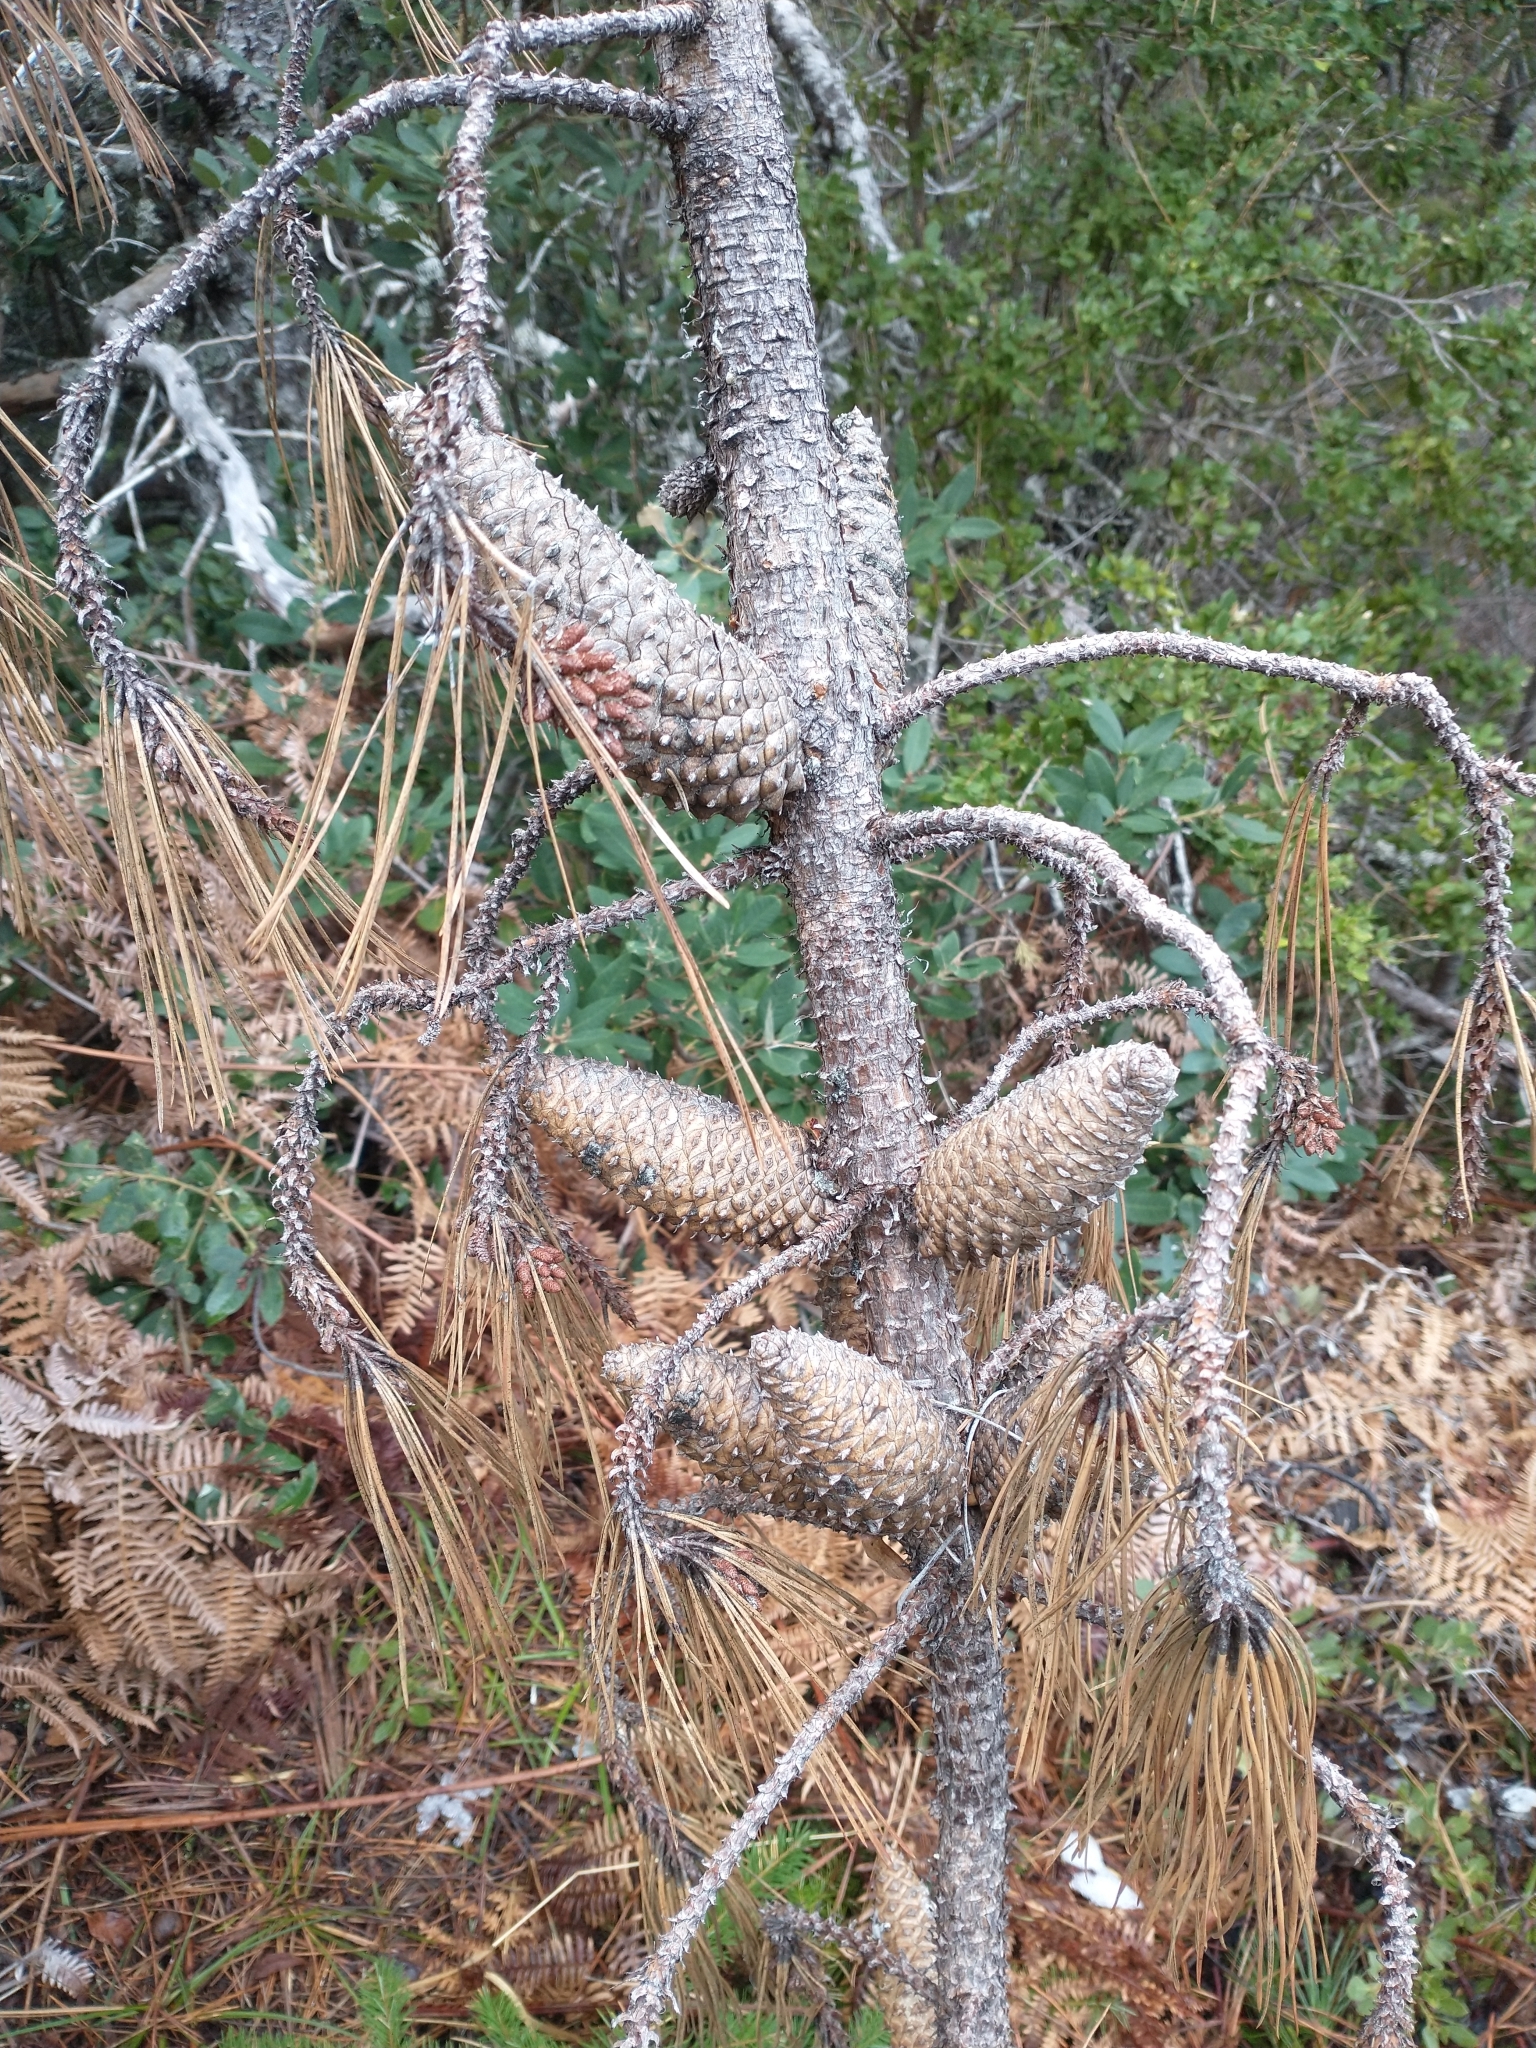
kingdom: Plantae
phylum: Tracheophyta
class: Pinopsida
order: Pinales
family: Pinaceae
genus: Pinus
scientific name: Pinus attenuata
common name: Knobcone pine
